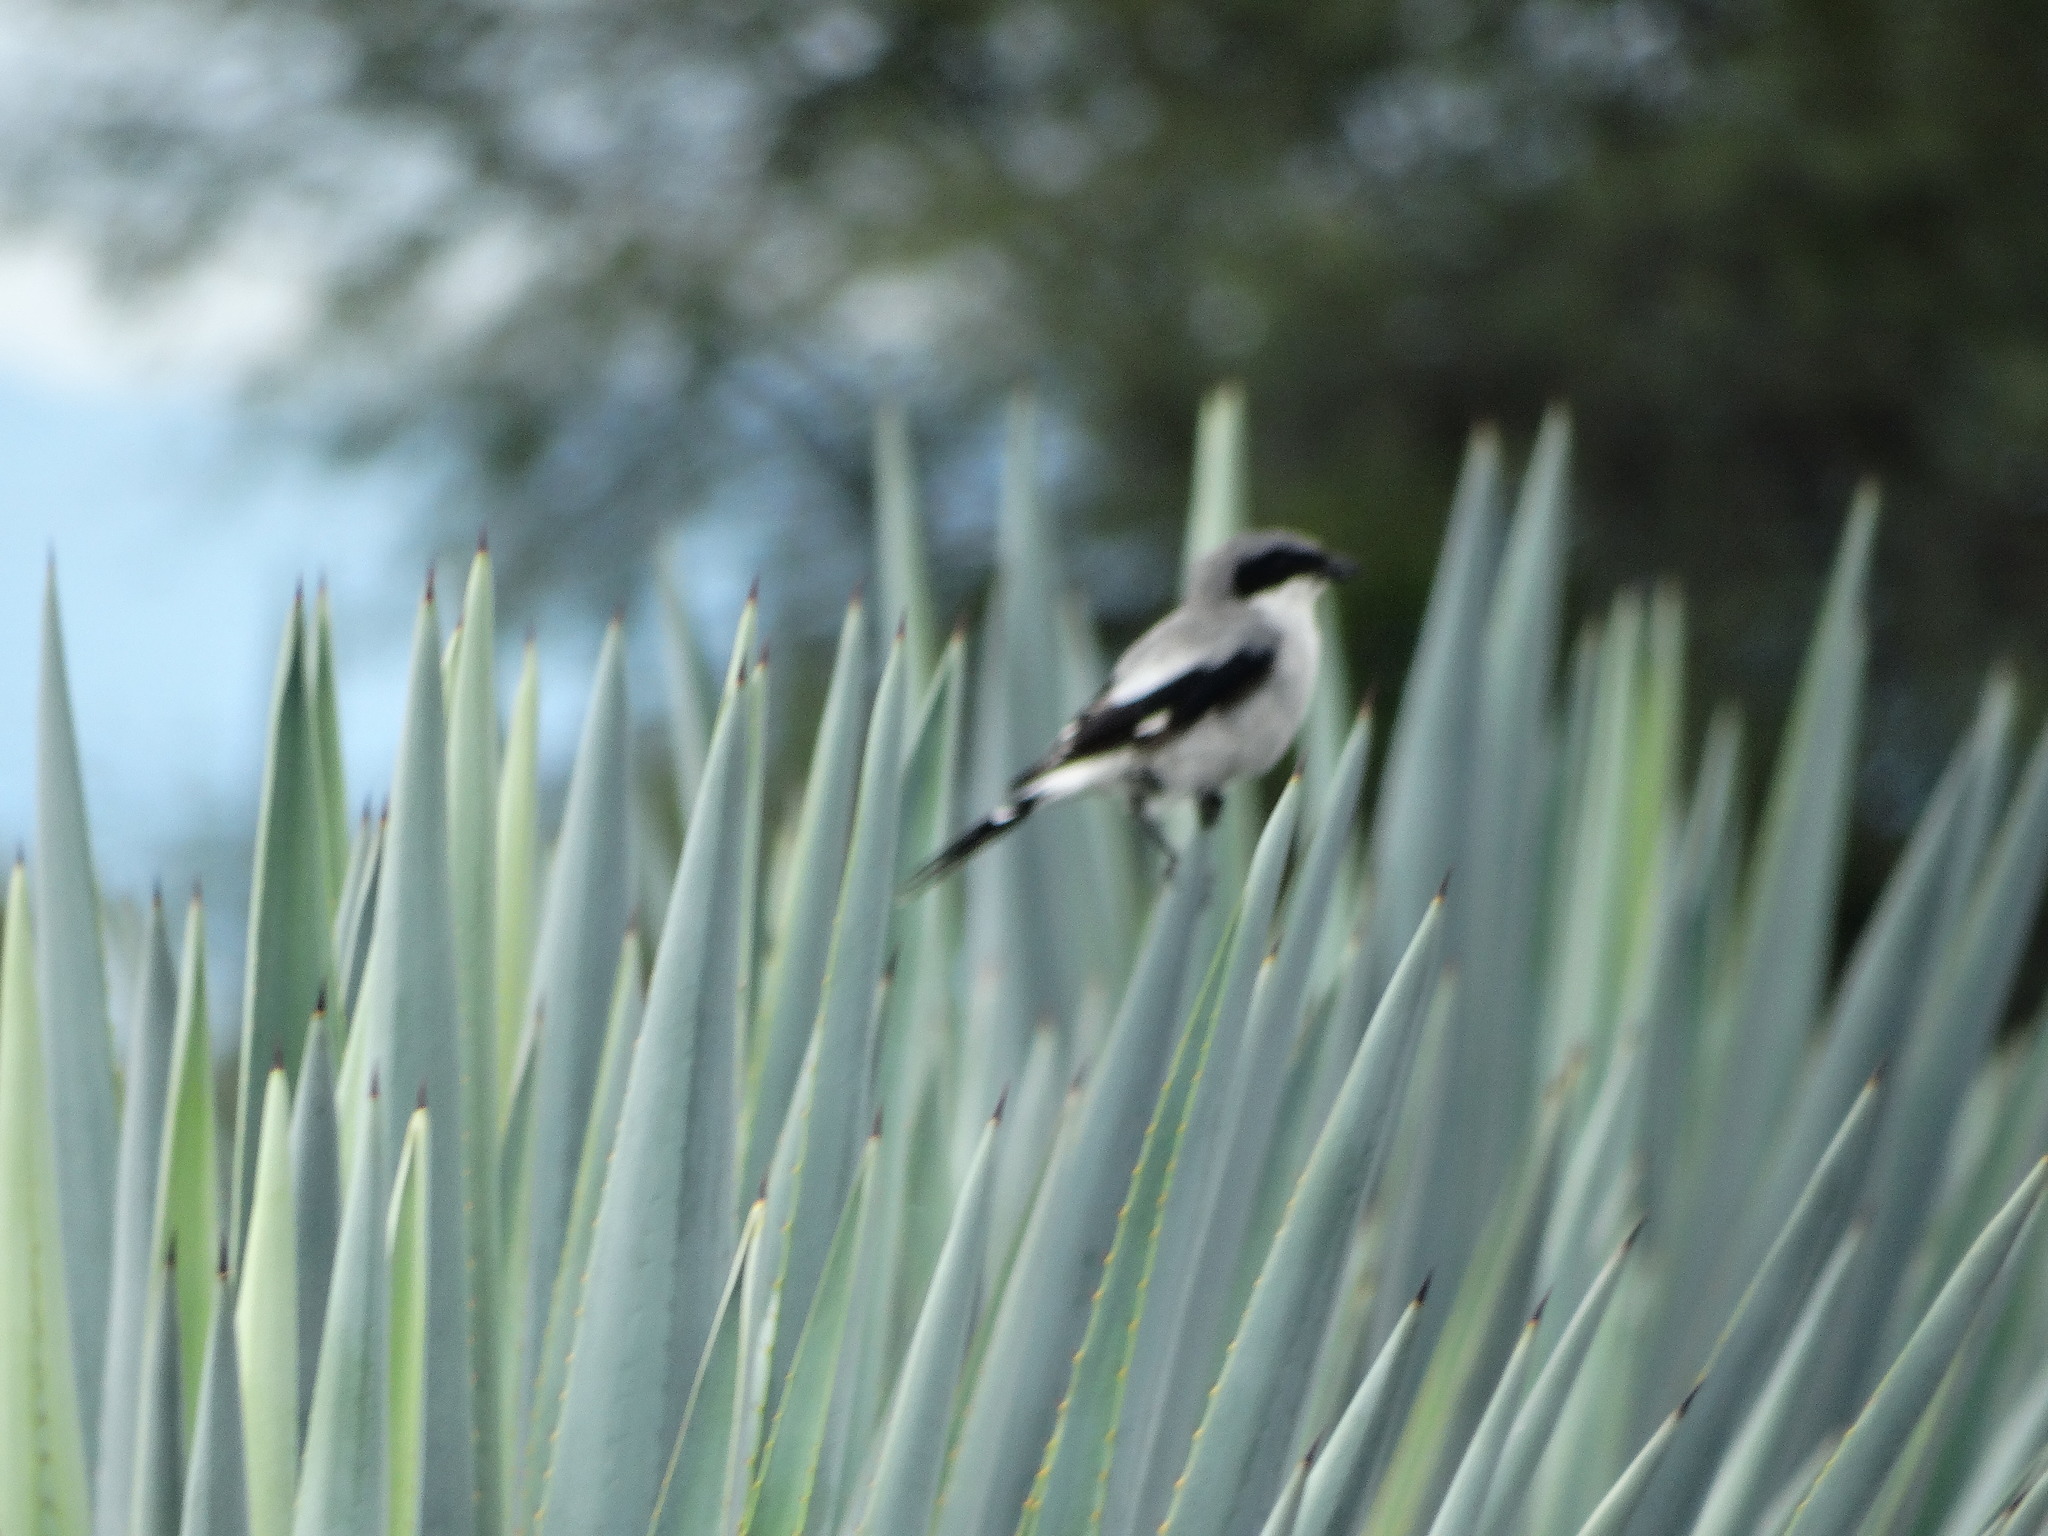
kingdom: Animalia
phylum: Chordata
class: Aves
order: Passeriformes
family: Laniidae
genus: Lanius
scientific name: Lanius ludovicianus
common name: Loggerhead shrike
